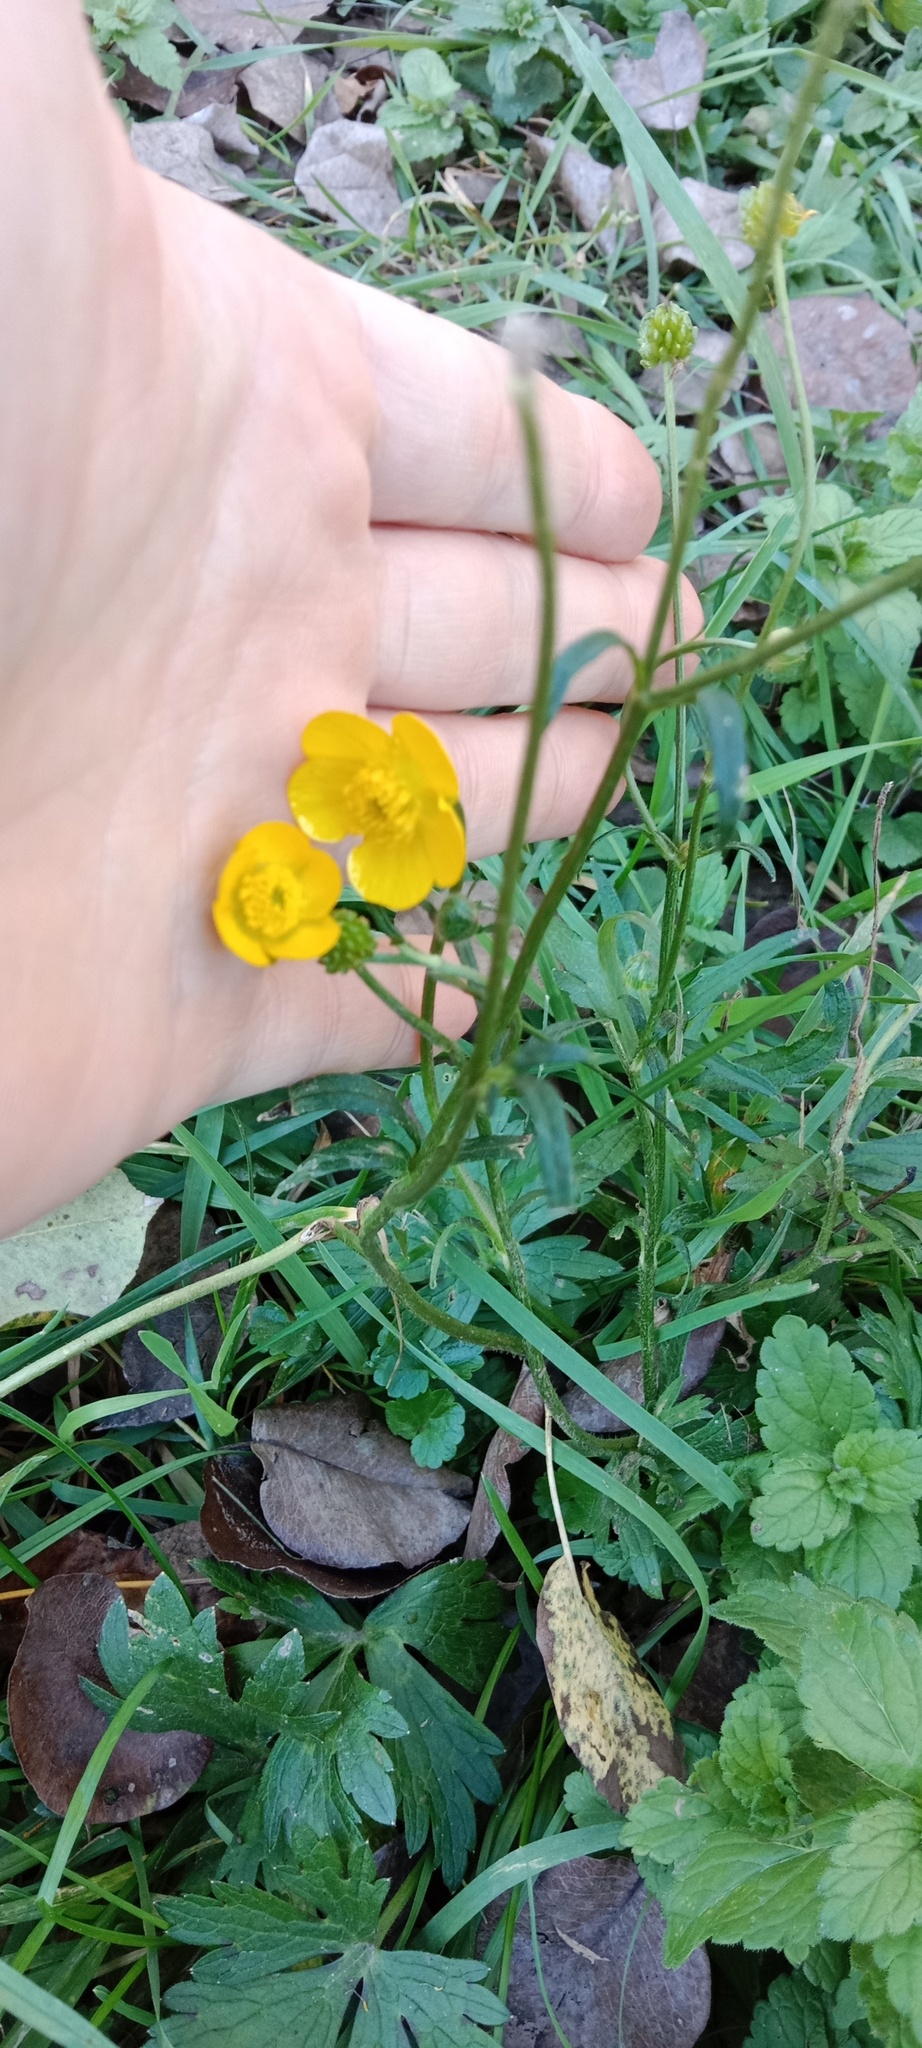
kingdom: Plantae
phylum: Tracheophyta
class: Magnoliopsida
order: Ranunculales
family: Ranunculaceae
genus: Ranunculus
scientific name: Ranunculus polyanthemos
